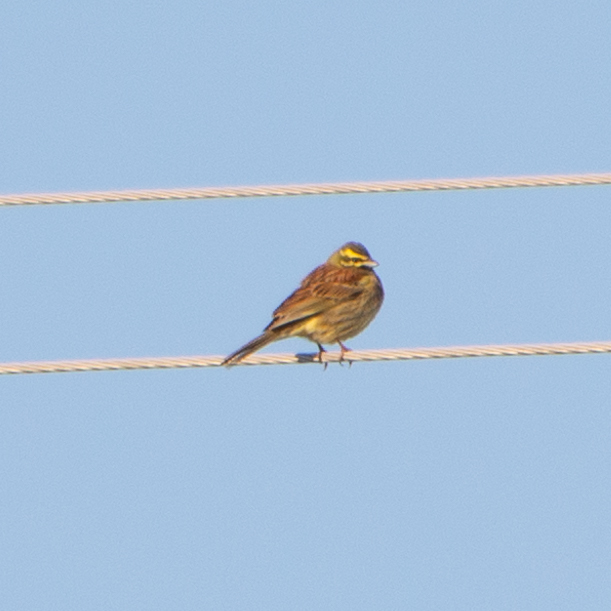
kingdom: Animalia
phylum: Chordata
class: Aves
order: Passeriformes
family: Emberizidae
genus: Emberiza
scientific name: Emberiza cirlus
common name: Cirl bunting
